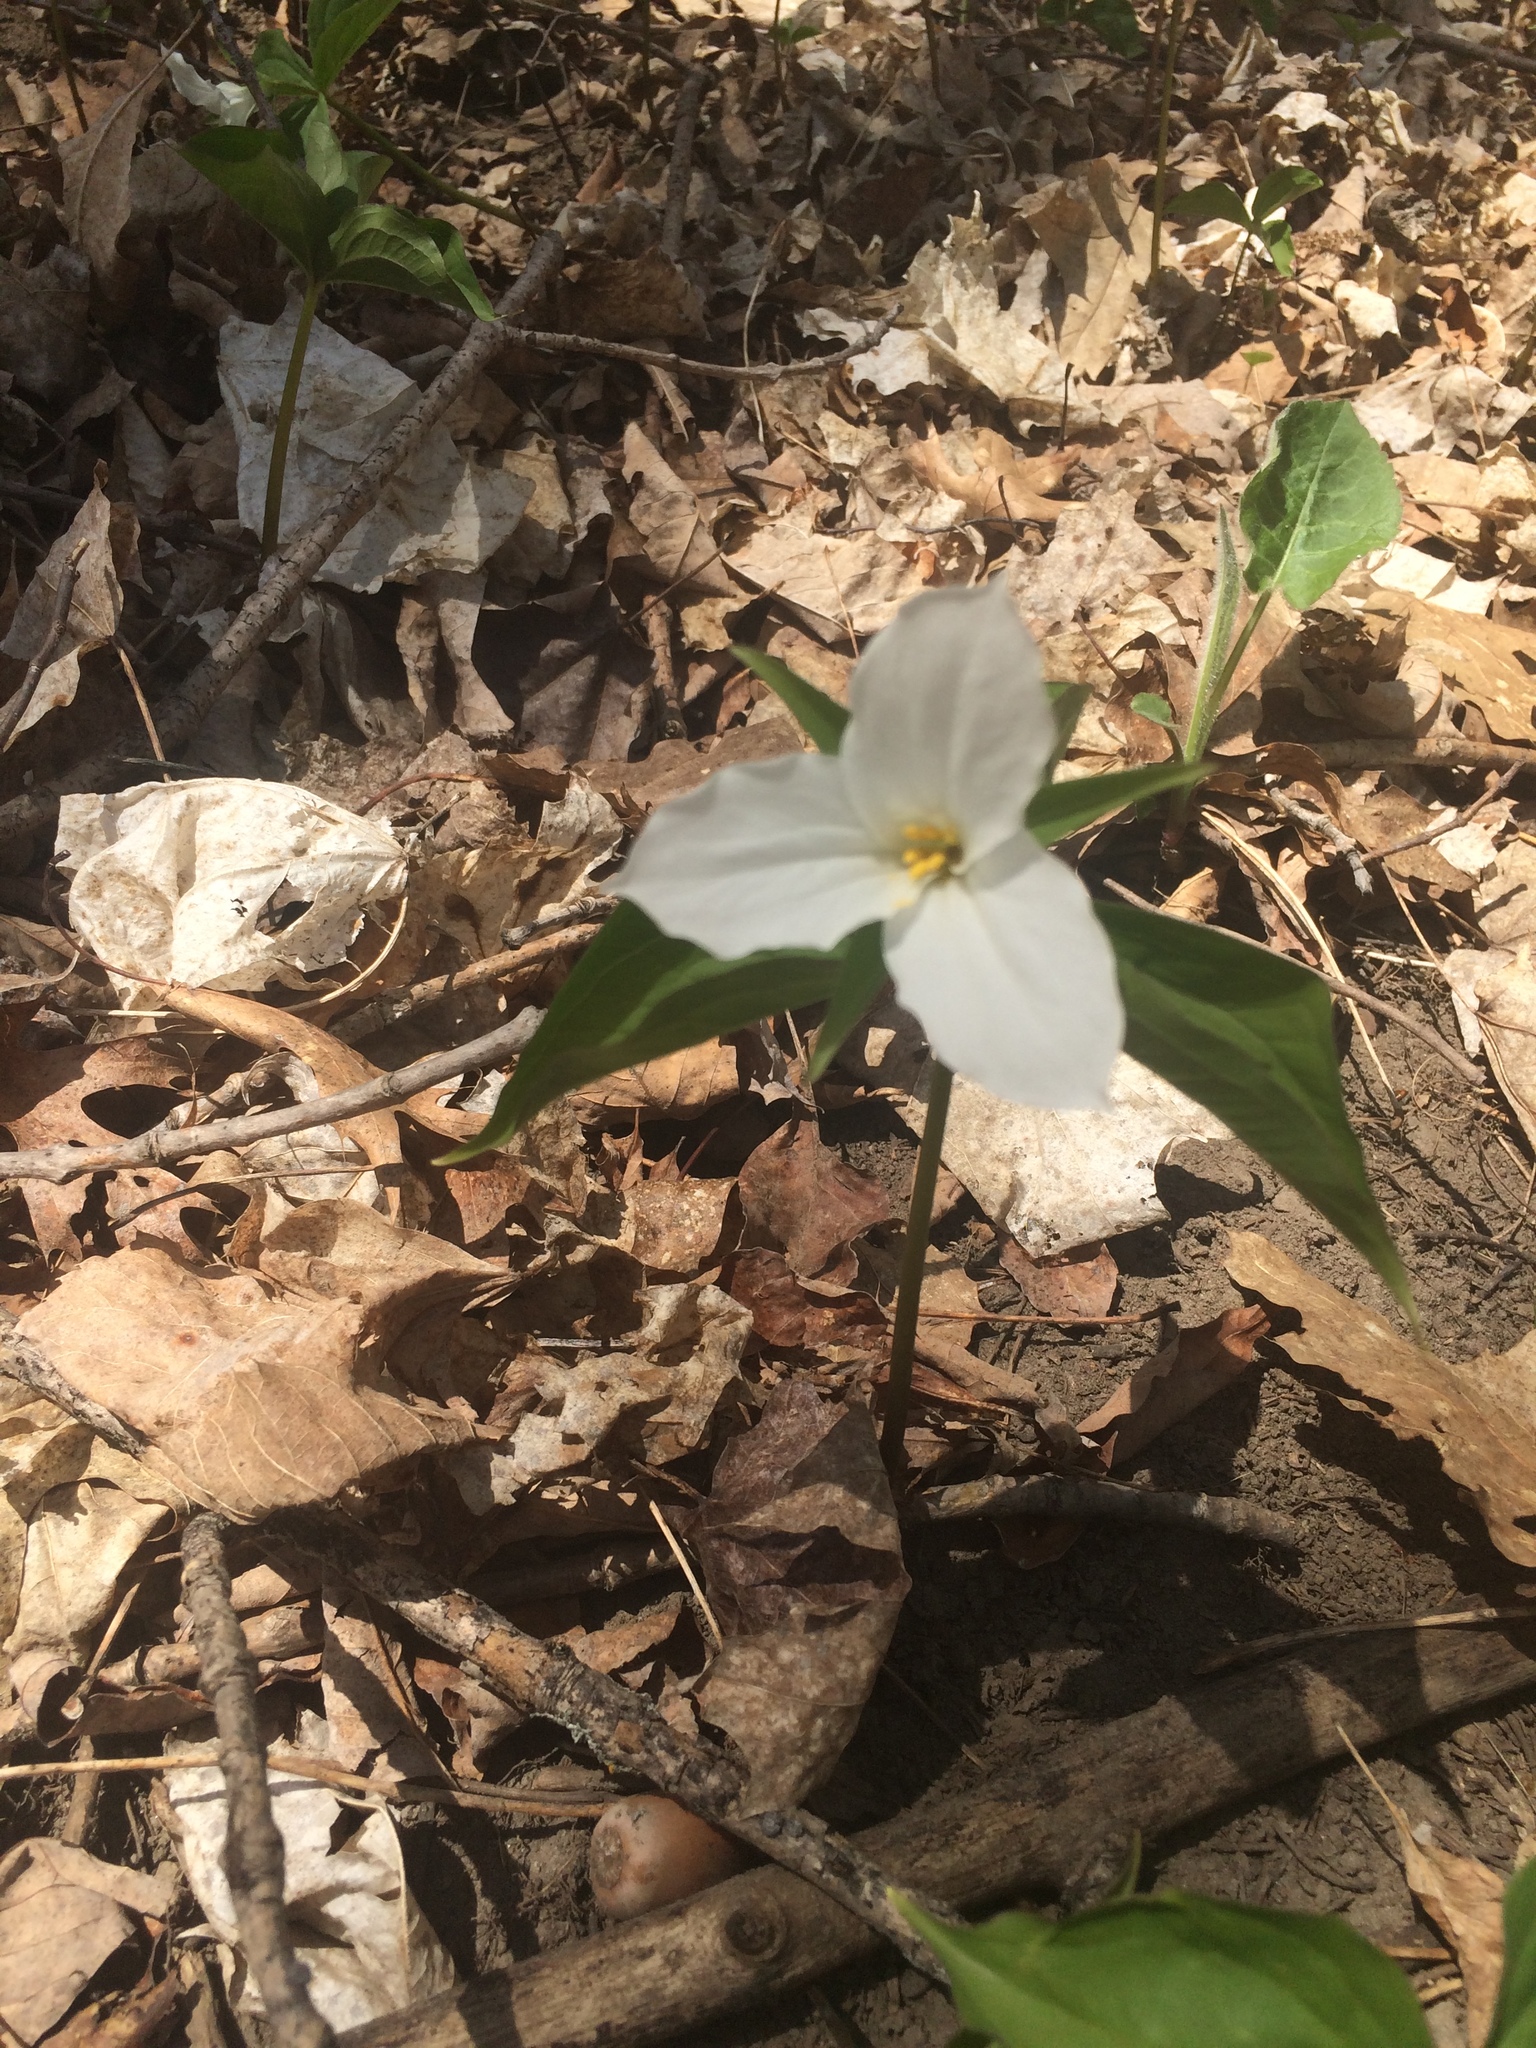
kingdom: Plantae
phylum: Tracheophyta
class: Liliopsida
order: Liliales
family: Melanthiaceae
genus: Trillium
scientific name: Trillium grandiflorum
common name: Great white trillium
